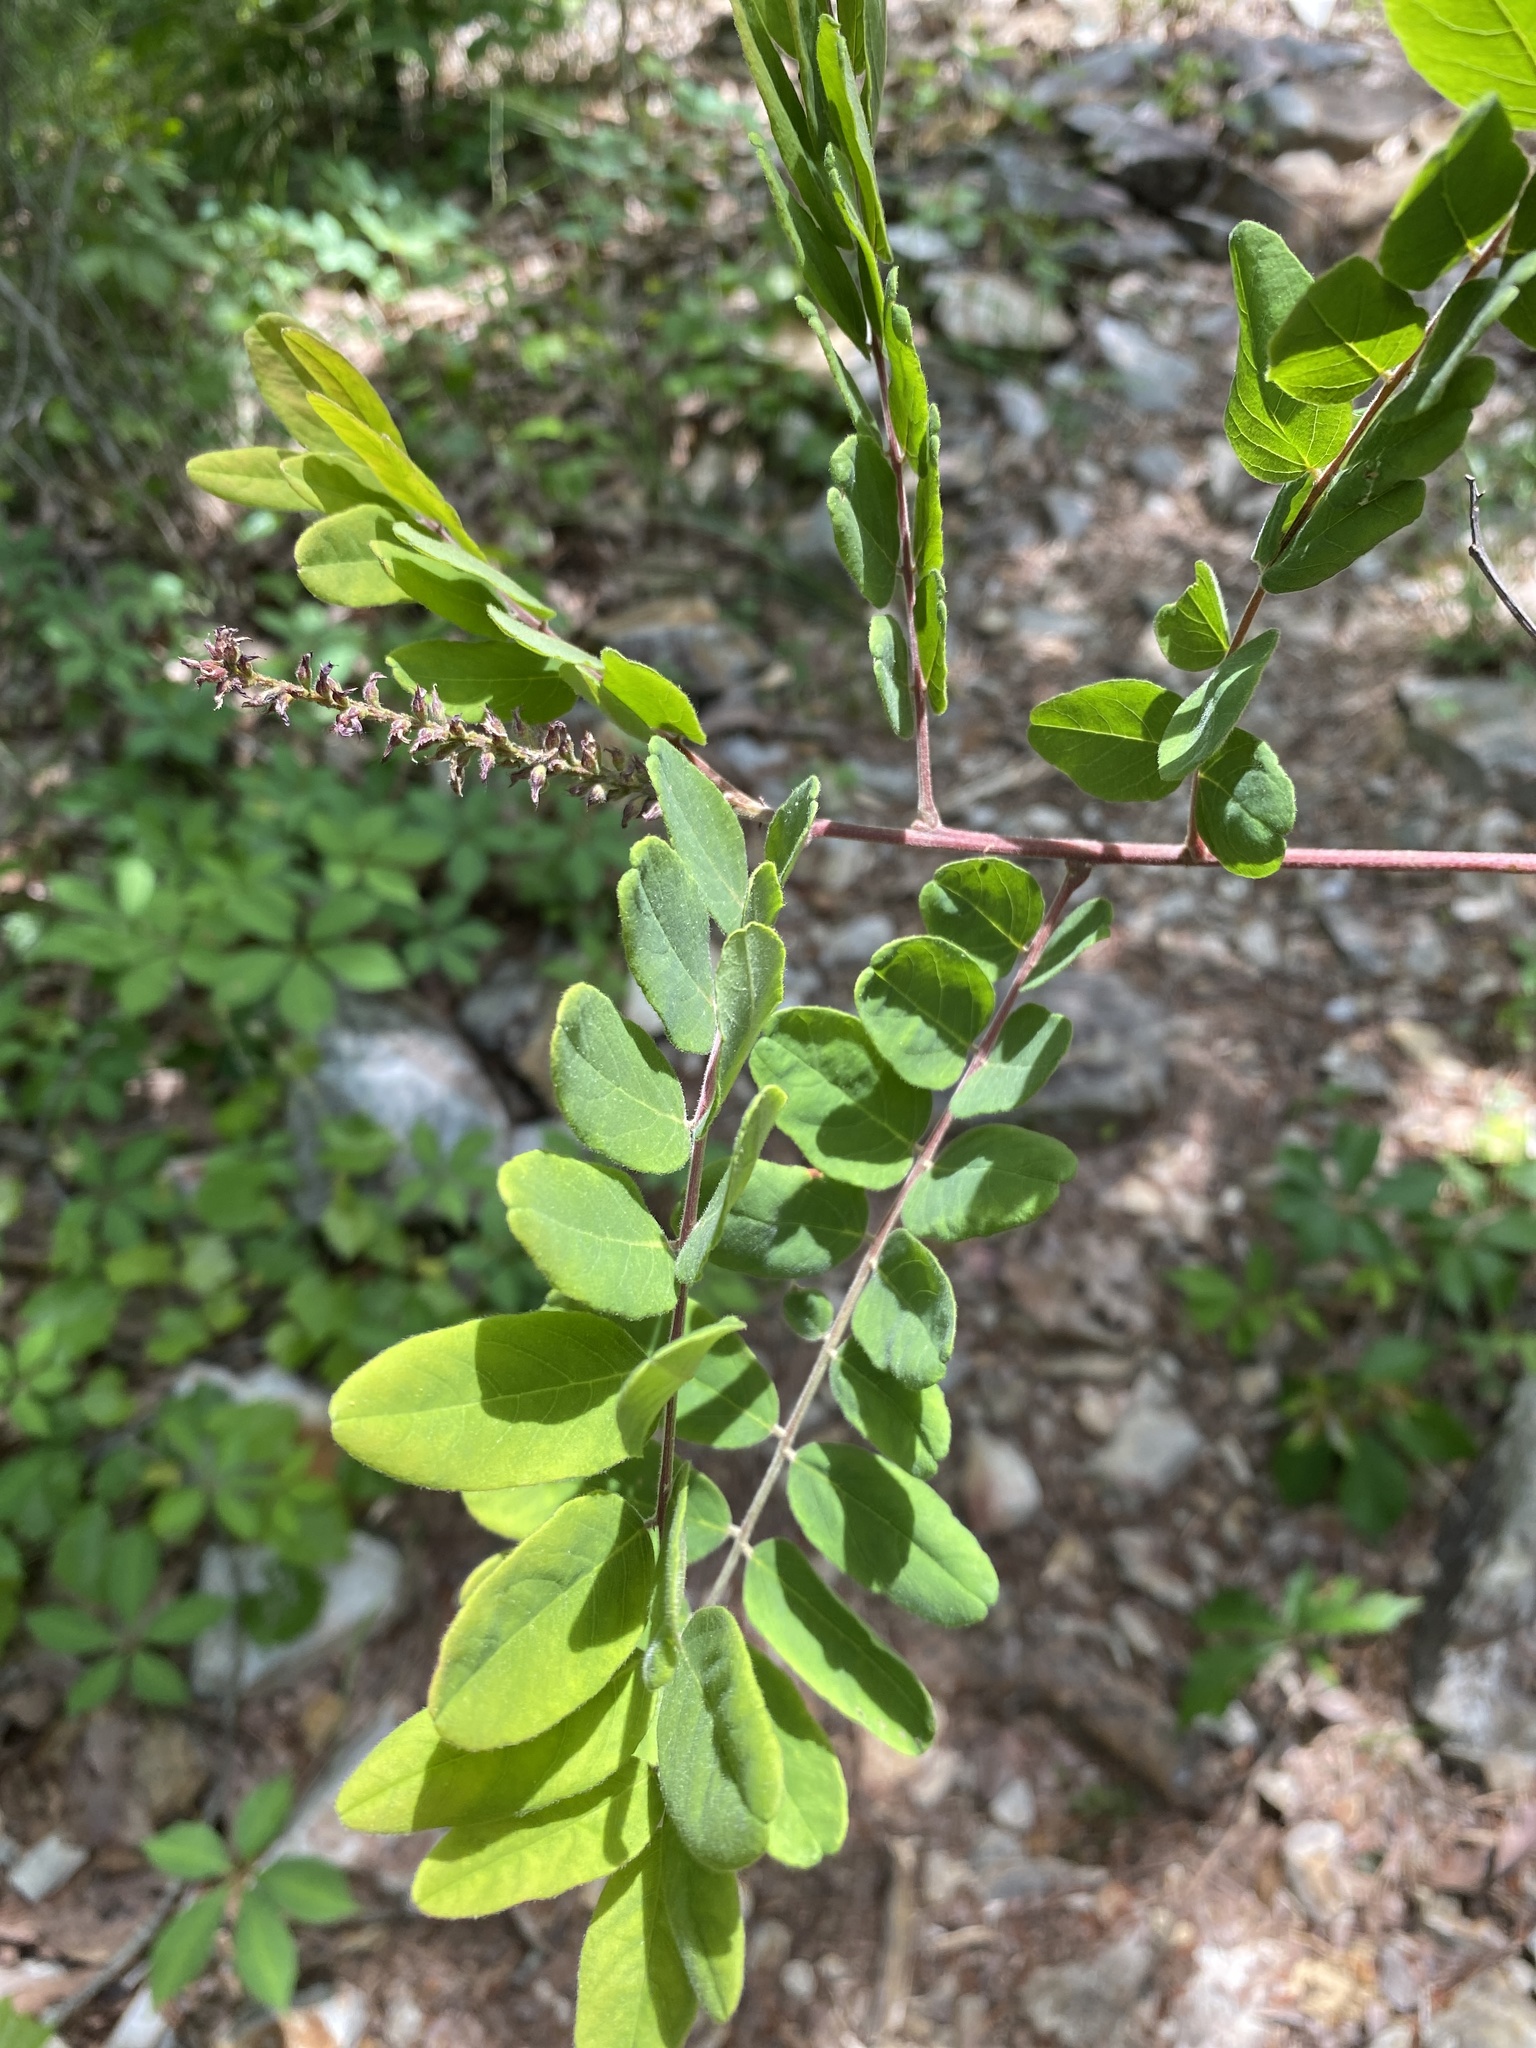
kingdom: Plantae
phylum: Tracheophyta
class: Magnoliopsida
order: Fabales
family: Fabaceae
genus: Amorpha
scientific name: Amorpha schwerinii
